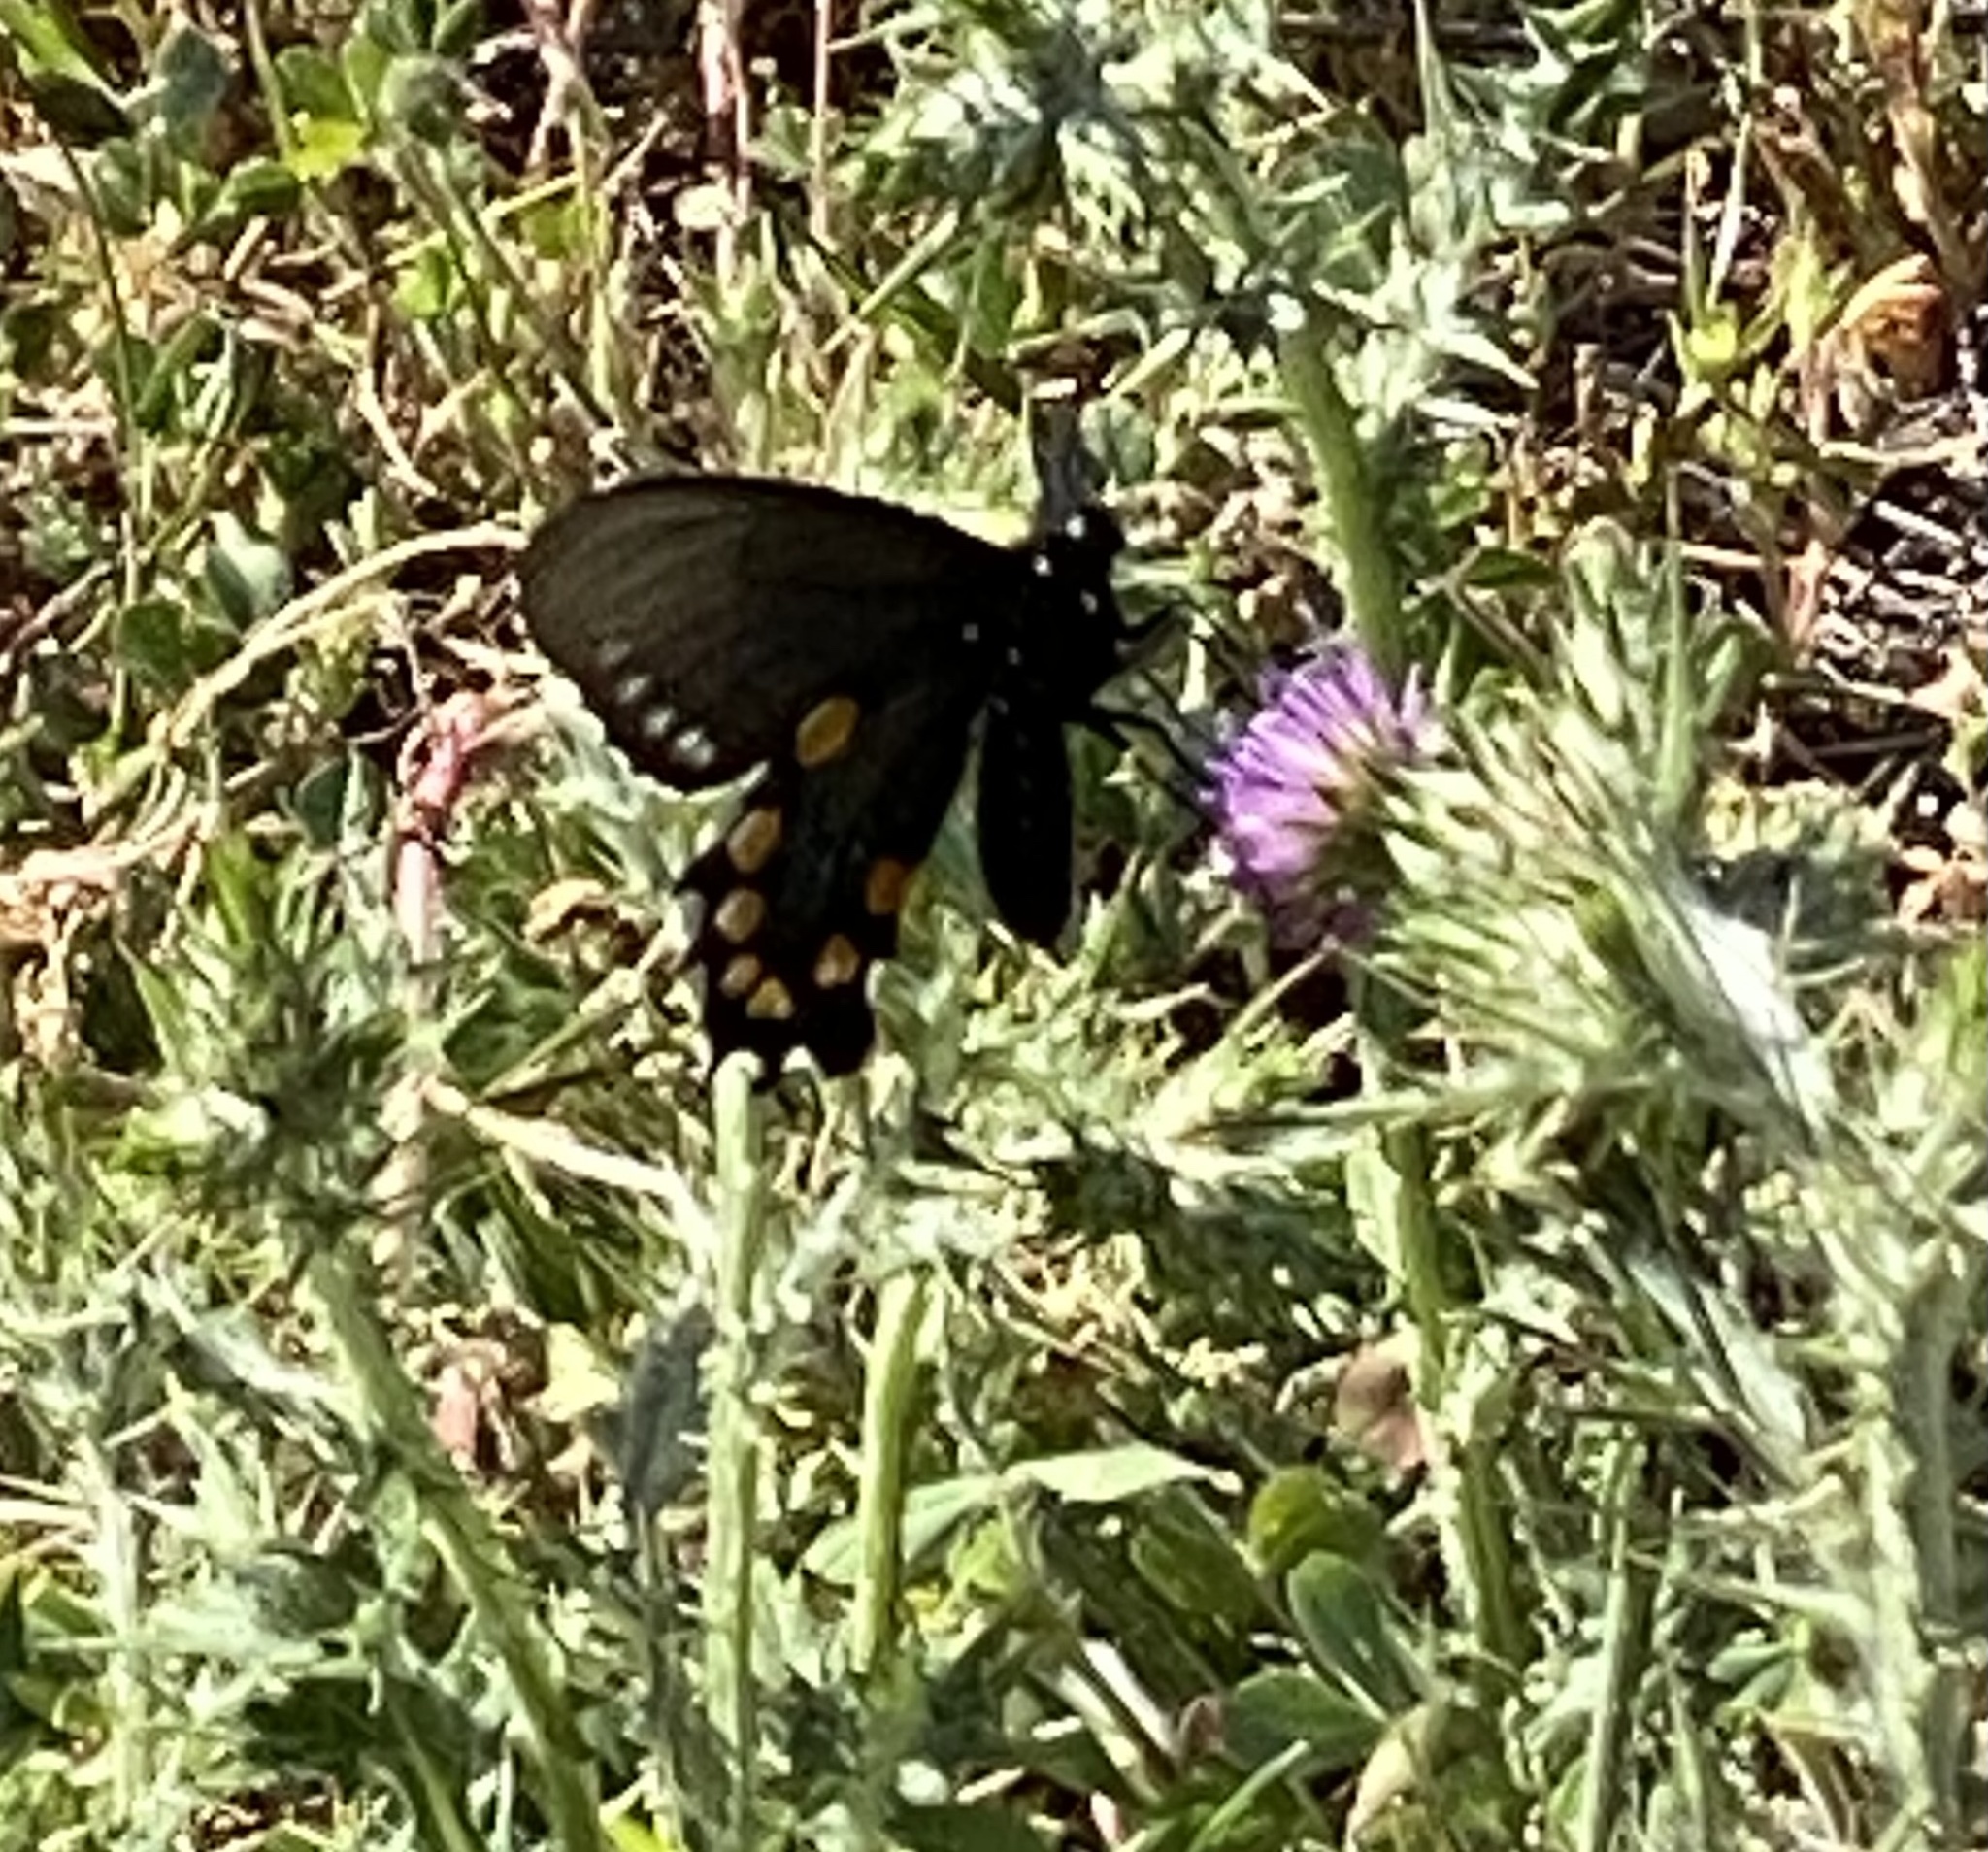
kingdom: Animalia
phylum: Arthropoda
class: Insecta
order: Lepidoptera
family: Papilionidae
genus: Battus
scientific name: Battus philenor
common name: Pipevine swallowtail
